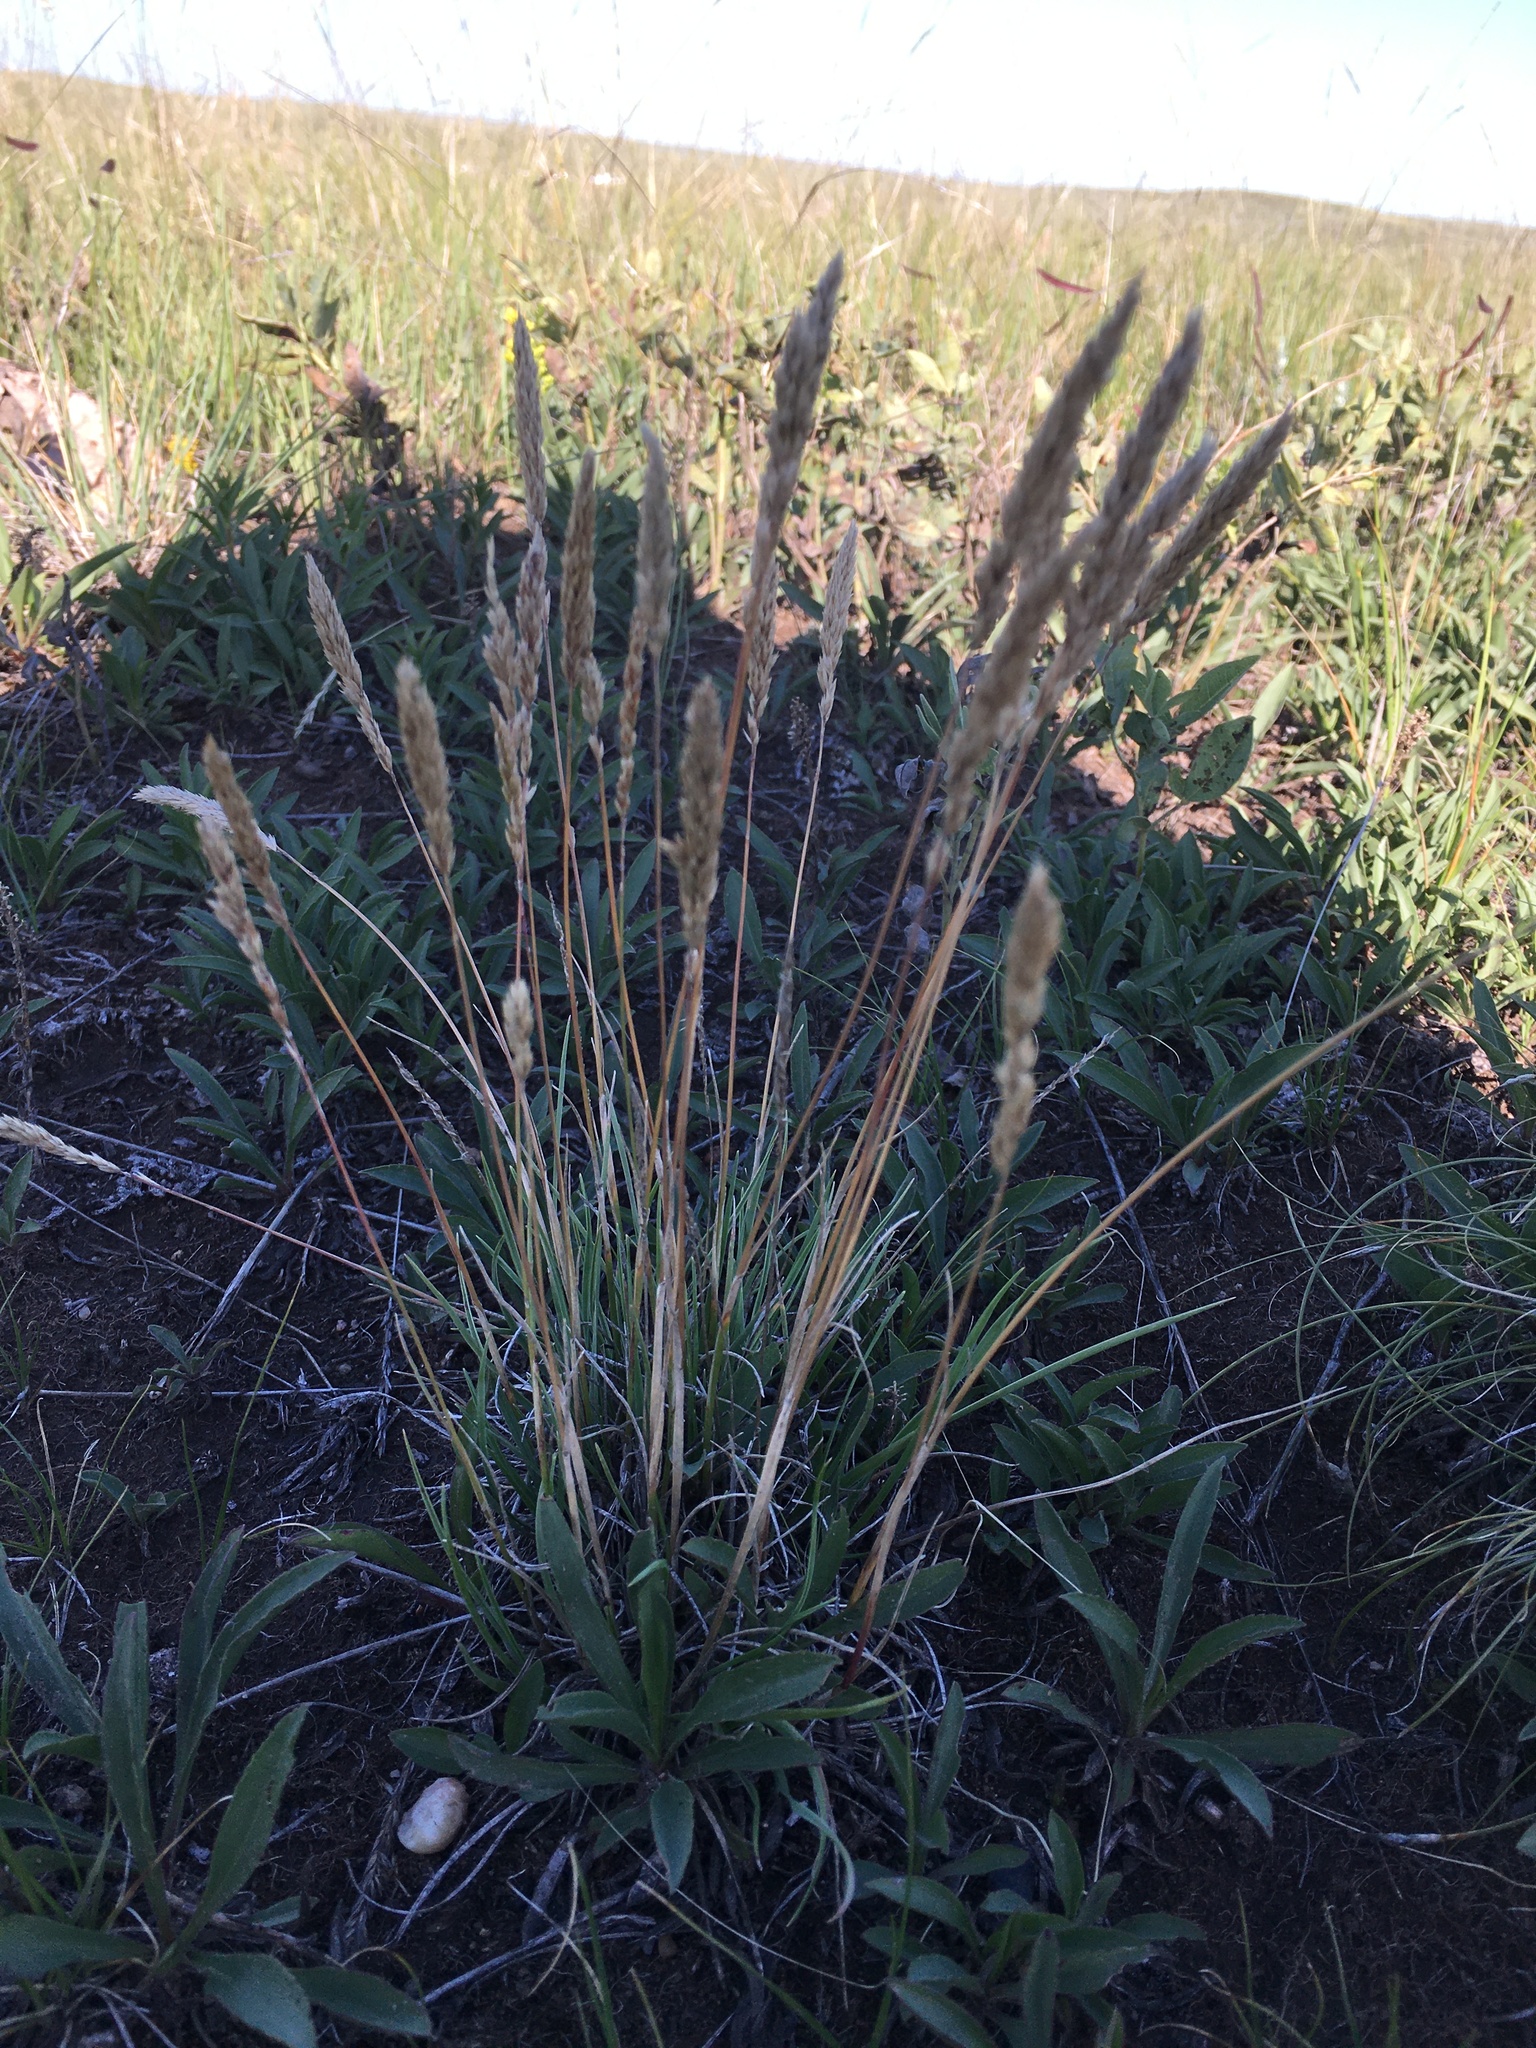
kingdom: Plantae
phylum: Tracheophyta
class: Liliopsida
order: Poales
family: Poaceae
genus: Koeleria
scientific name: Koeleria macrantha
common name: Crested hair-grass
